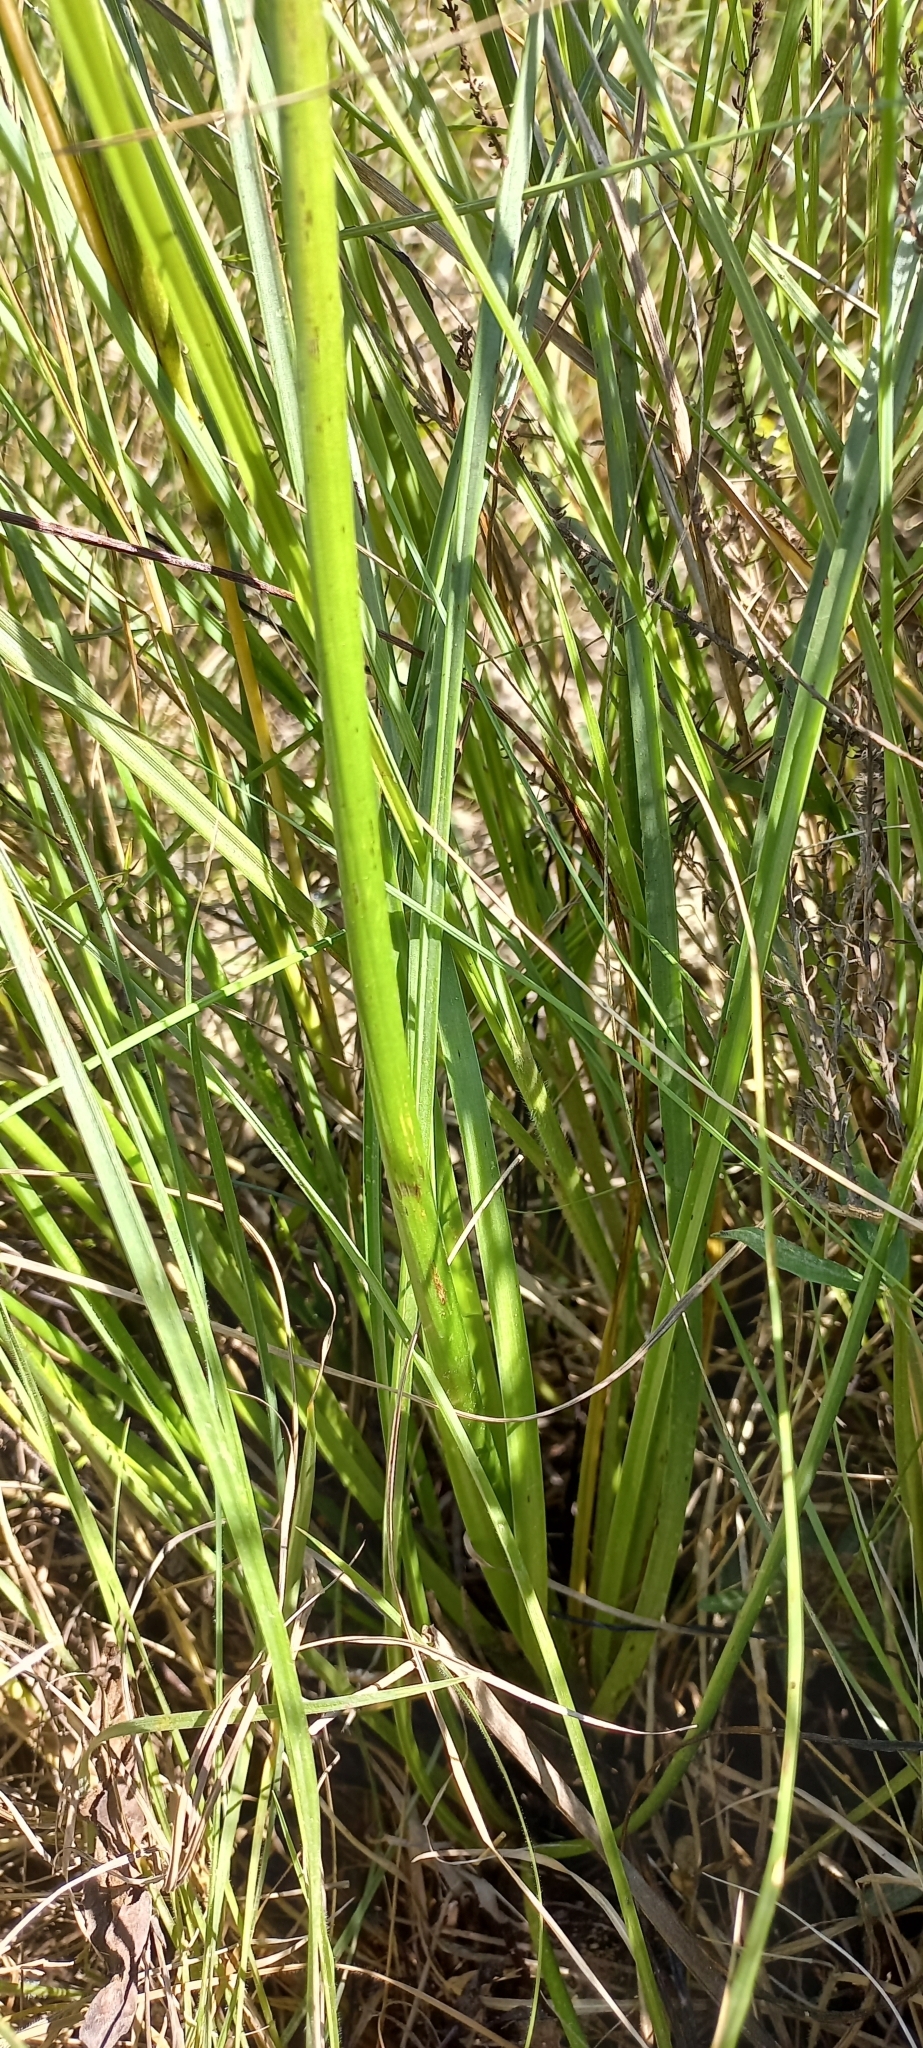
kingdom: Plantae
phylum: Tracheophyta
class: Liliopsida
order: Asparagales
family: Asphodelaceae
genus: Bulbine
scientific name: Bulbine abyssinica
